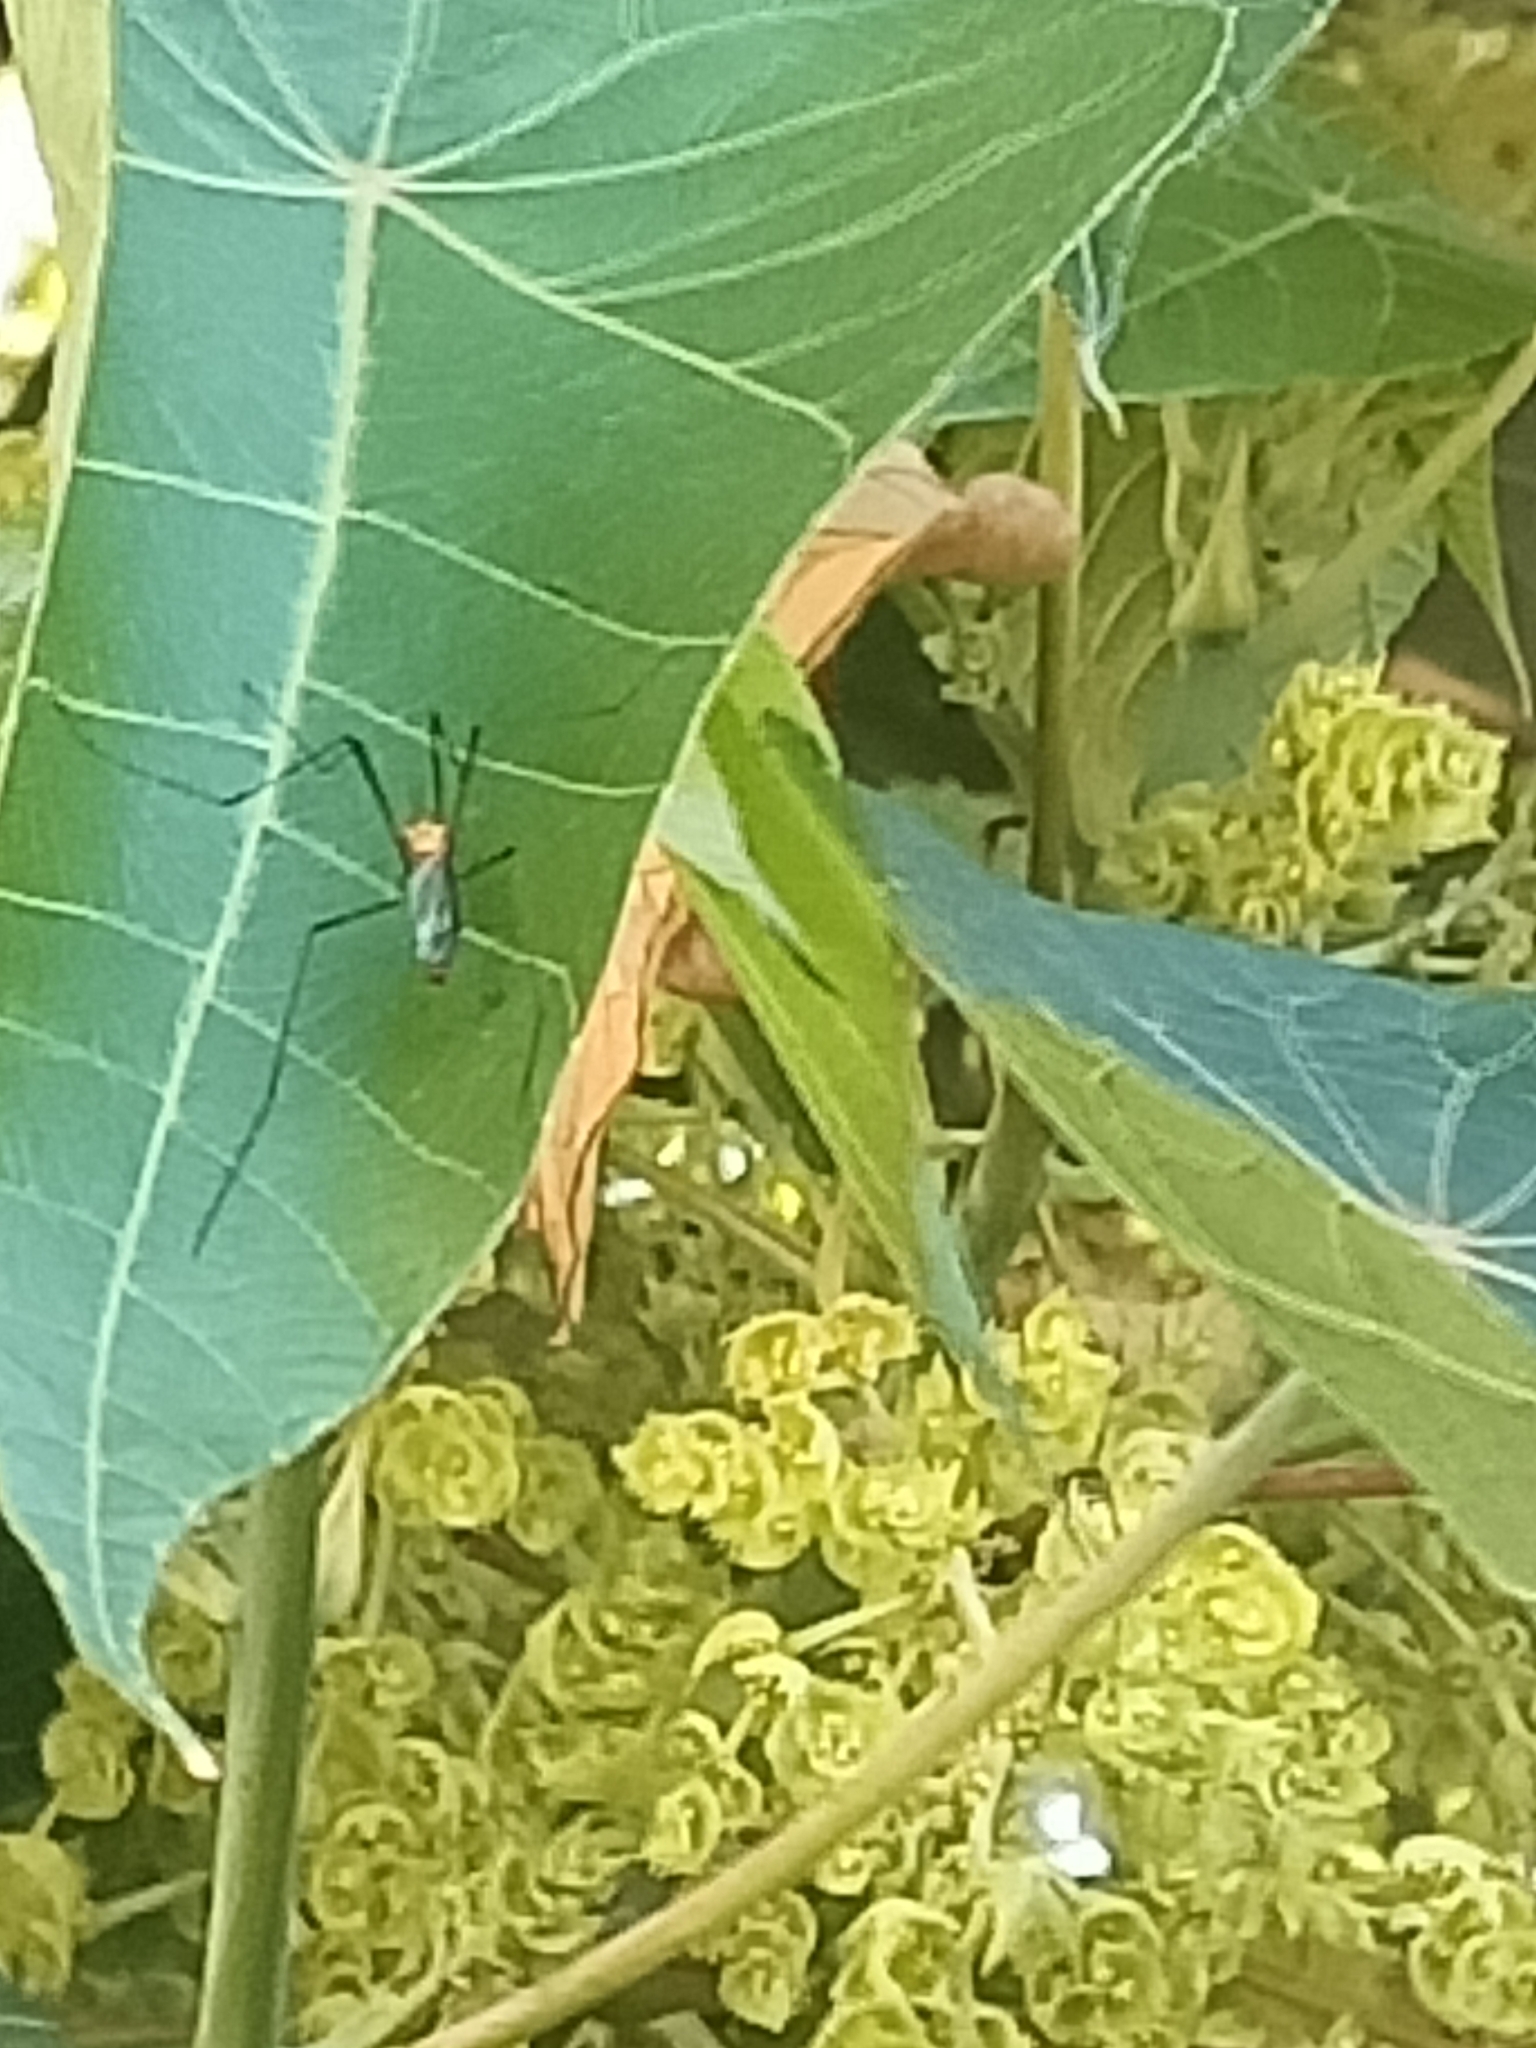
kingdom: Animalia
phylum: Arthropoda
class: Insecta
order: Diptera
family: Tipulidae
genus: Nephrotoma
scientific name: Nephrotoma australasiae
